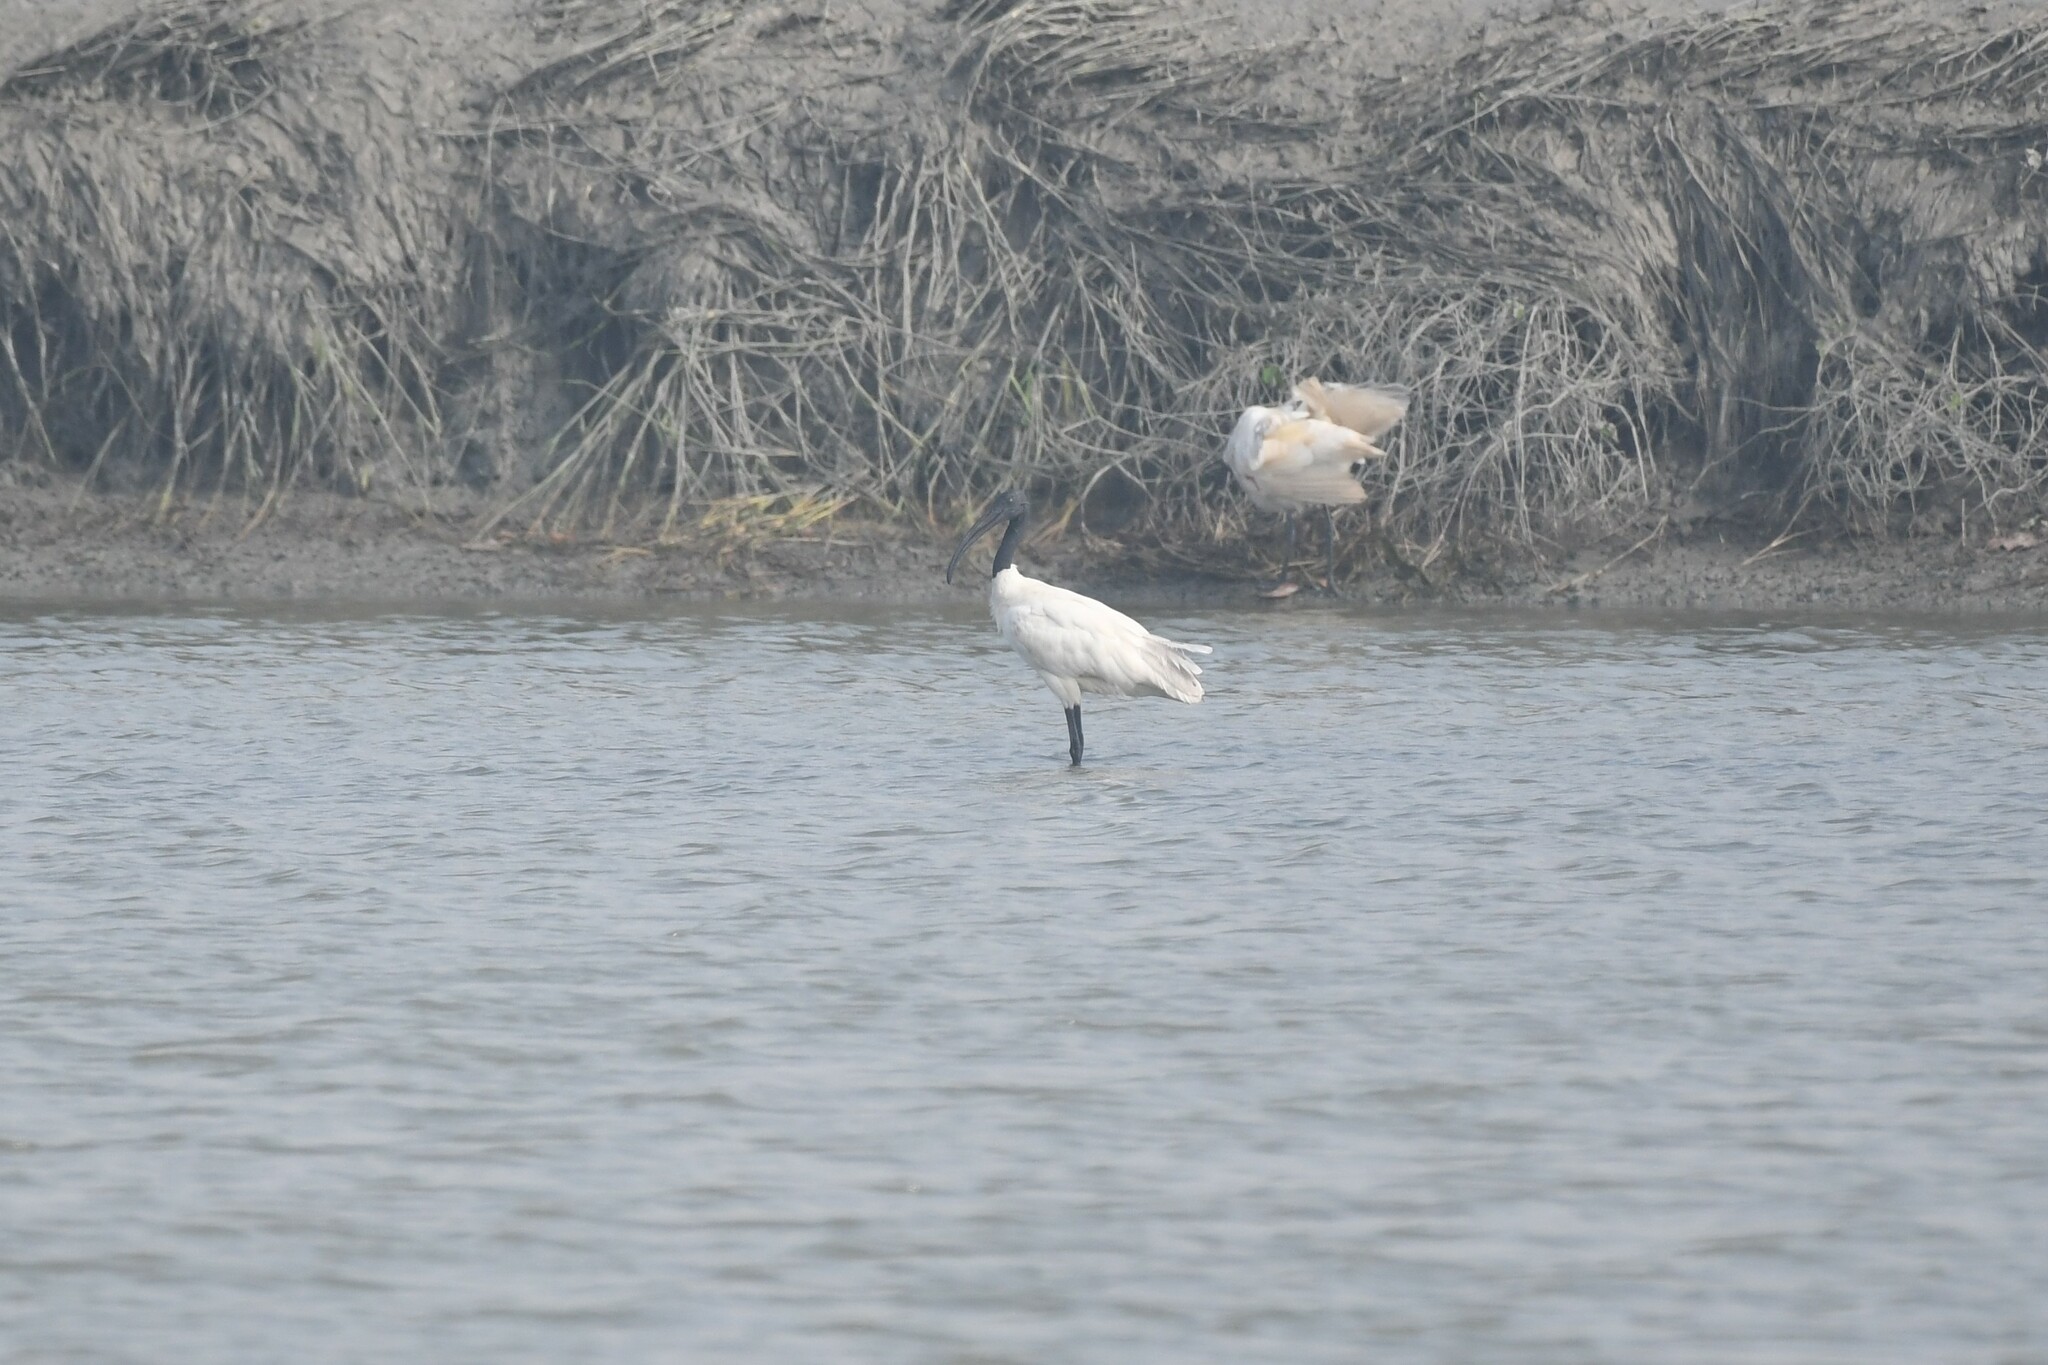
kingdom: Animalia
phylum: Chordata
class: Aves
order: Pelecaniformes
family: Threskiornithidae
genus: Threskiornis
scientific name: Threskiornis melanocephalus
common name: Black-headed ibis
